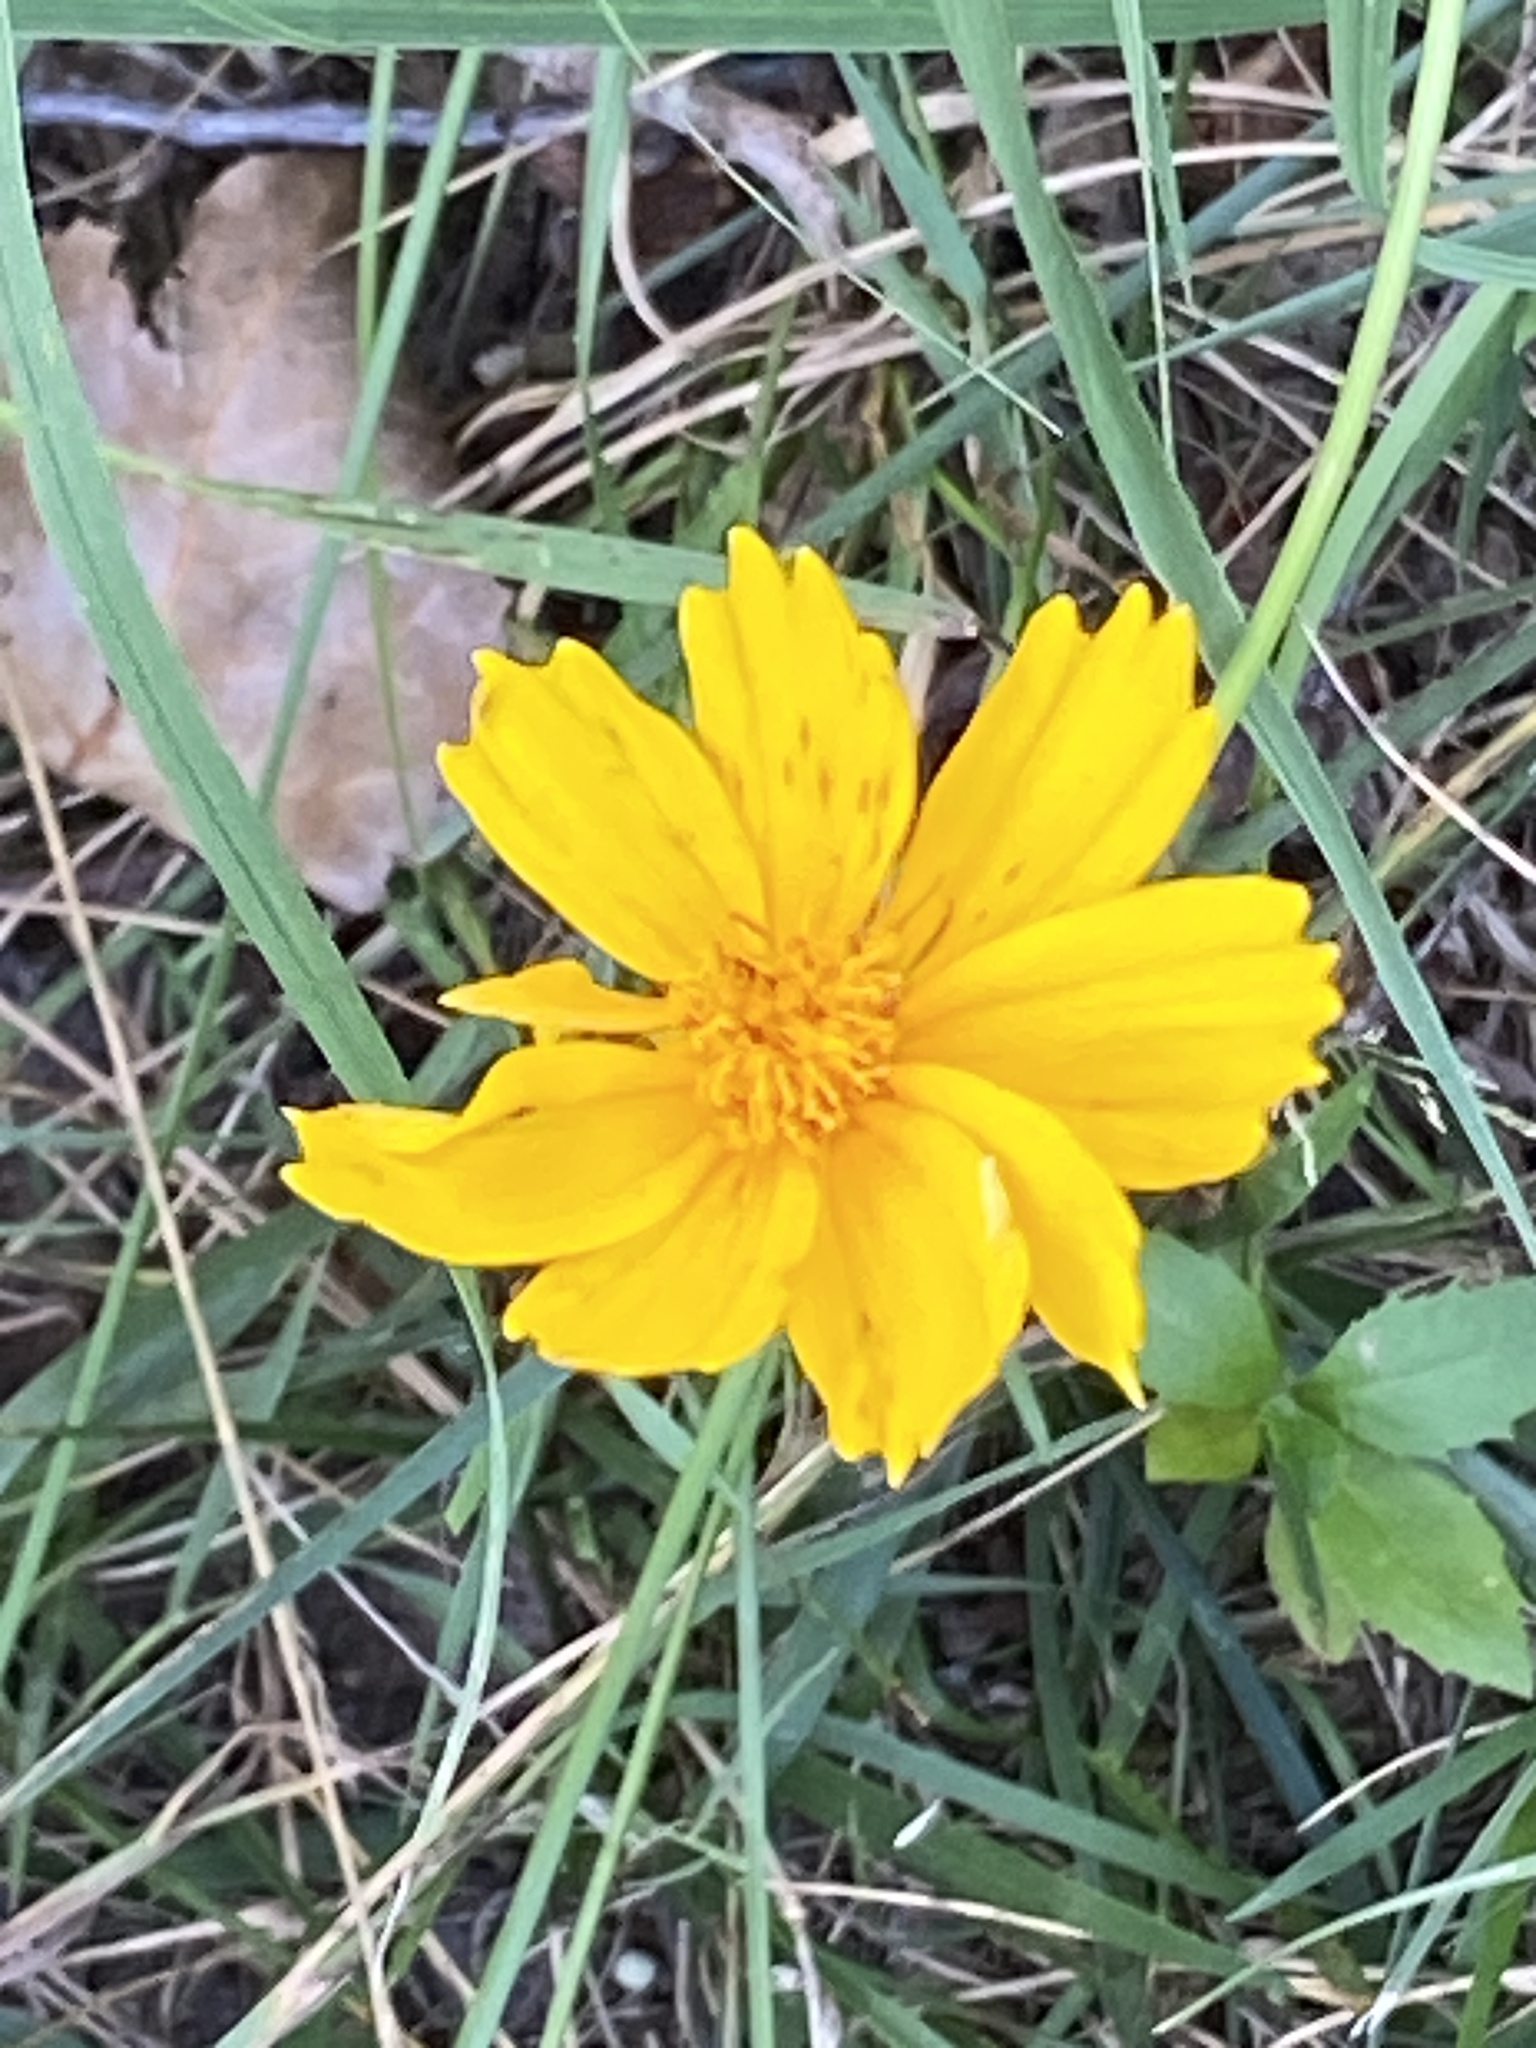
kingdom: Plantae
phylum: Tracheophyta
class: Magnoliopsida
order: Asterales
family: Asteraceae
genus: Coreopsis
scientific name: Coreopsis lanceolata
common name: Garden coreopsis
